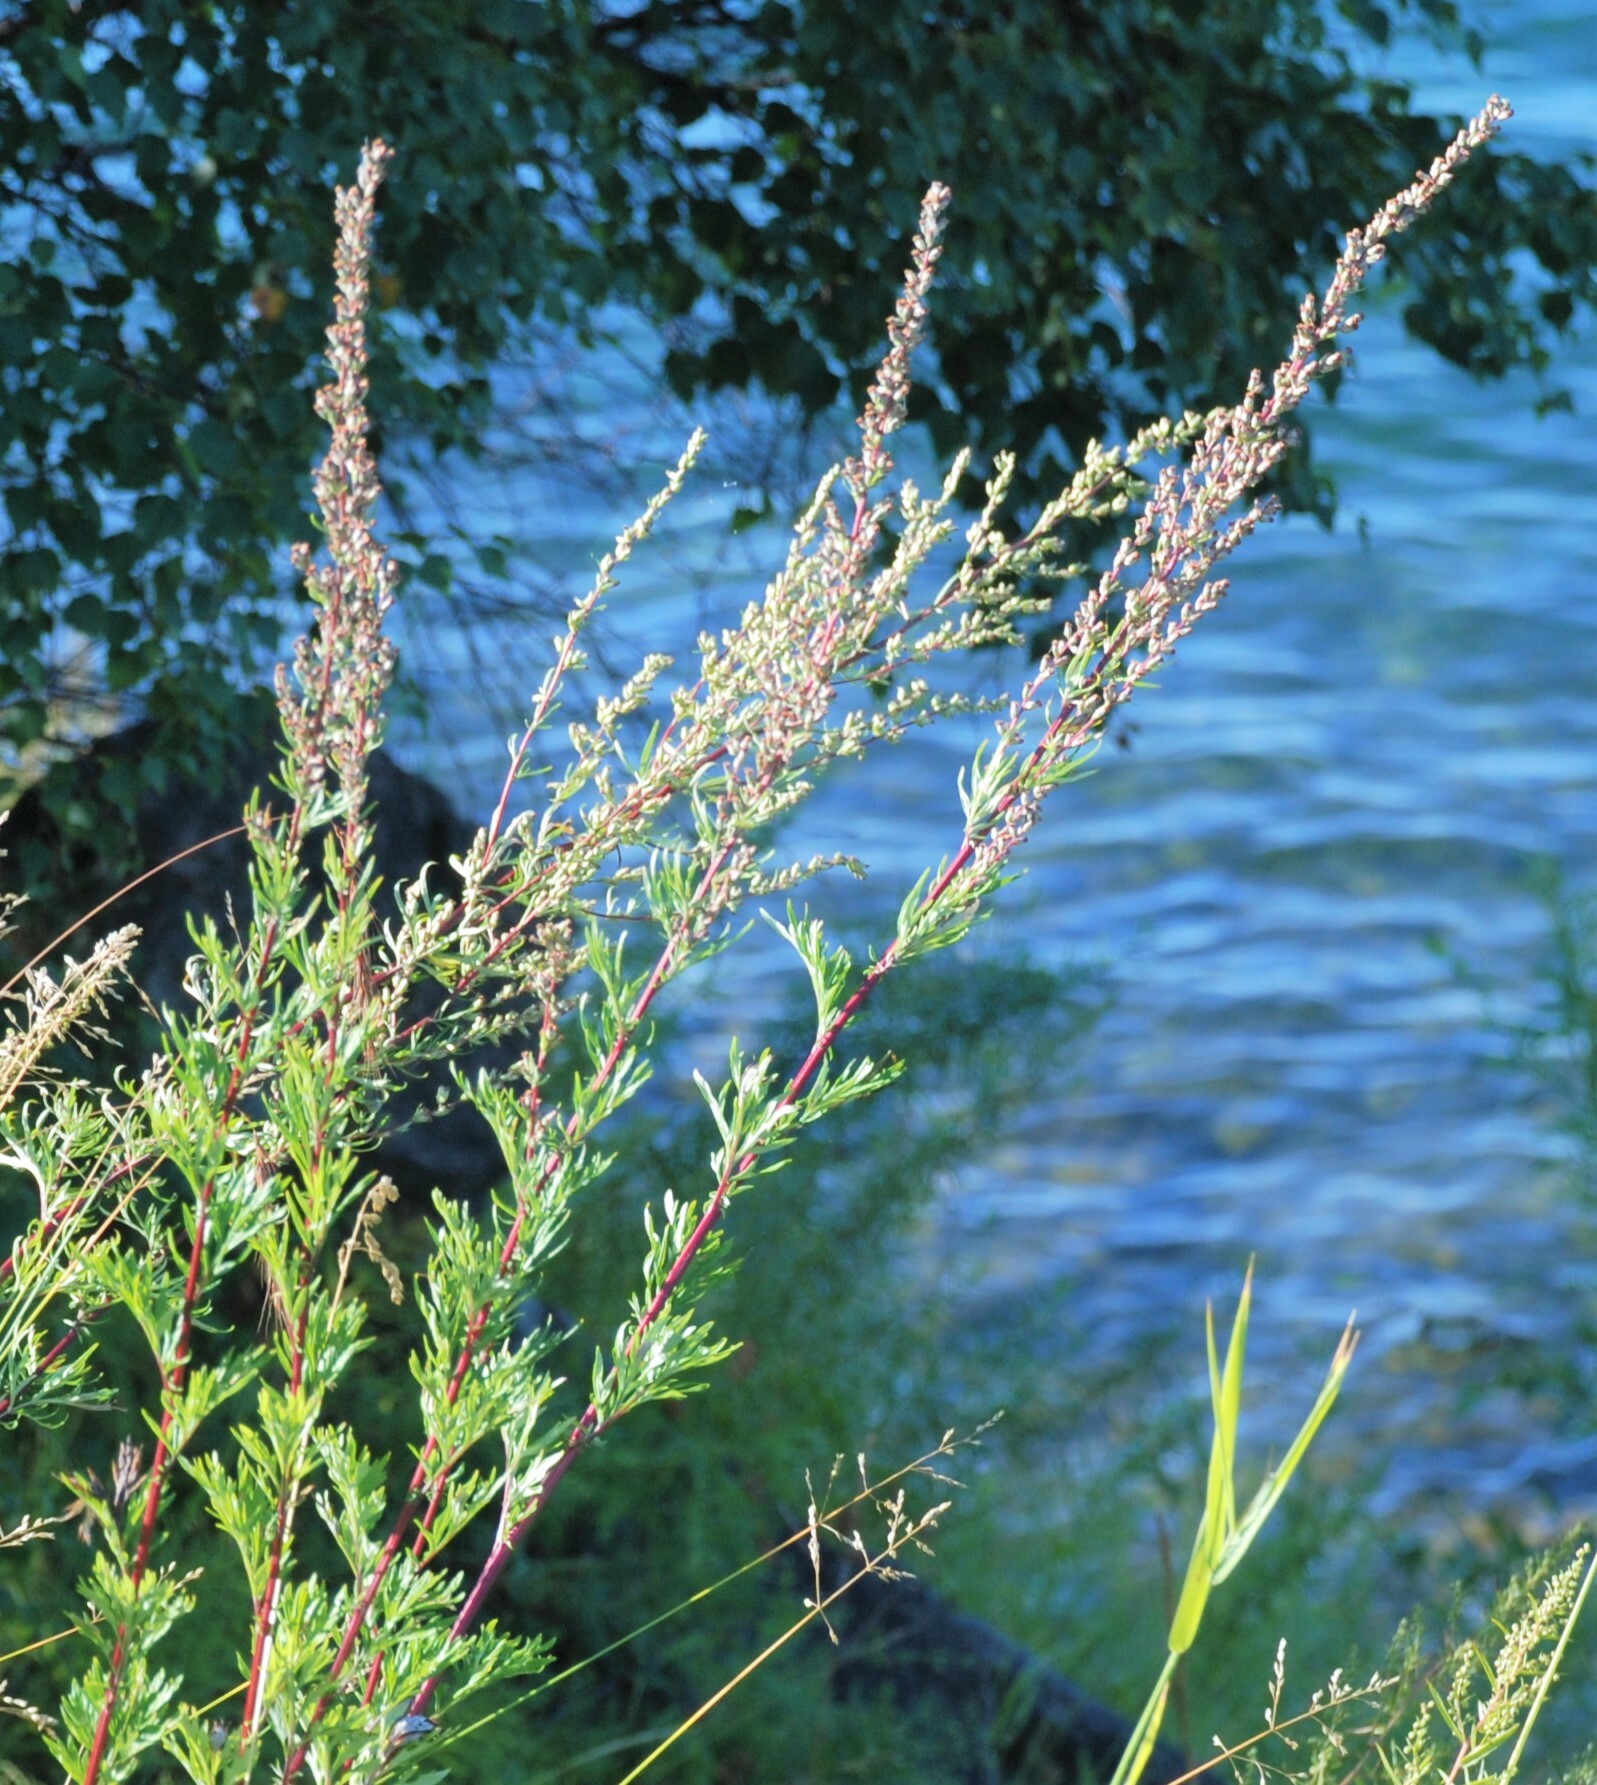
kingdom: Plantae
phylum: Tracheophyta
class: Magnoliopsida
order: Asterales
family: Asteraceae
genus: Artemisia
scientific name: Artemisia vulgaris
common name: Mugwort
